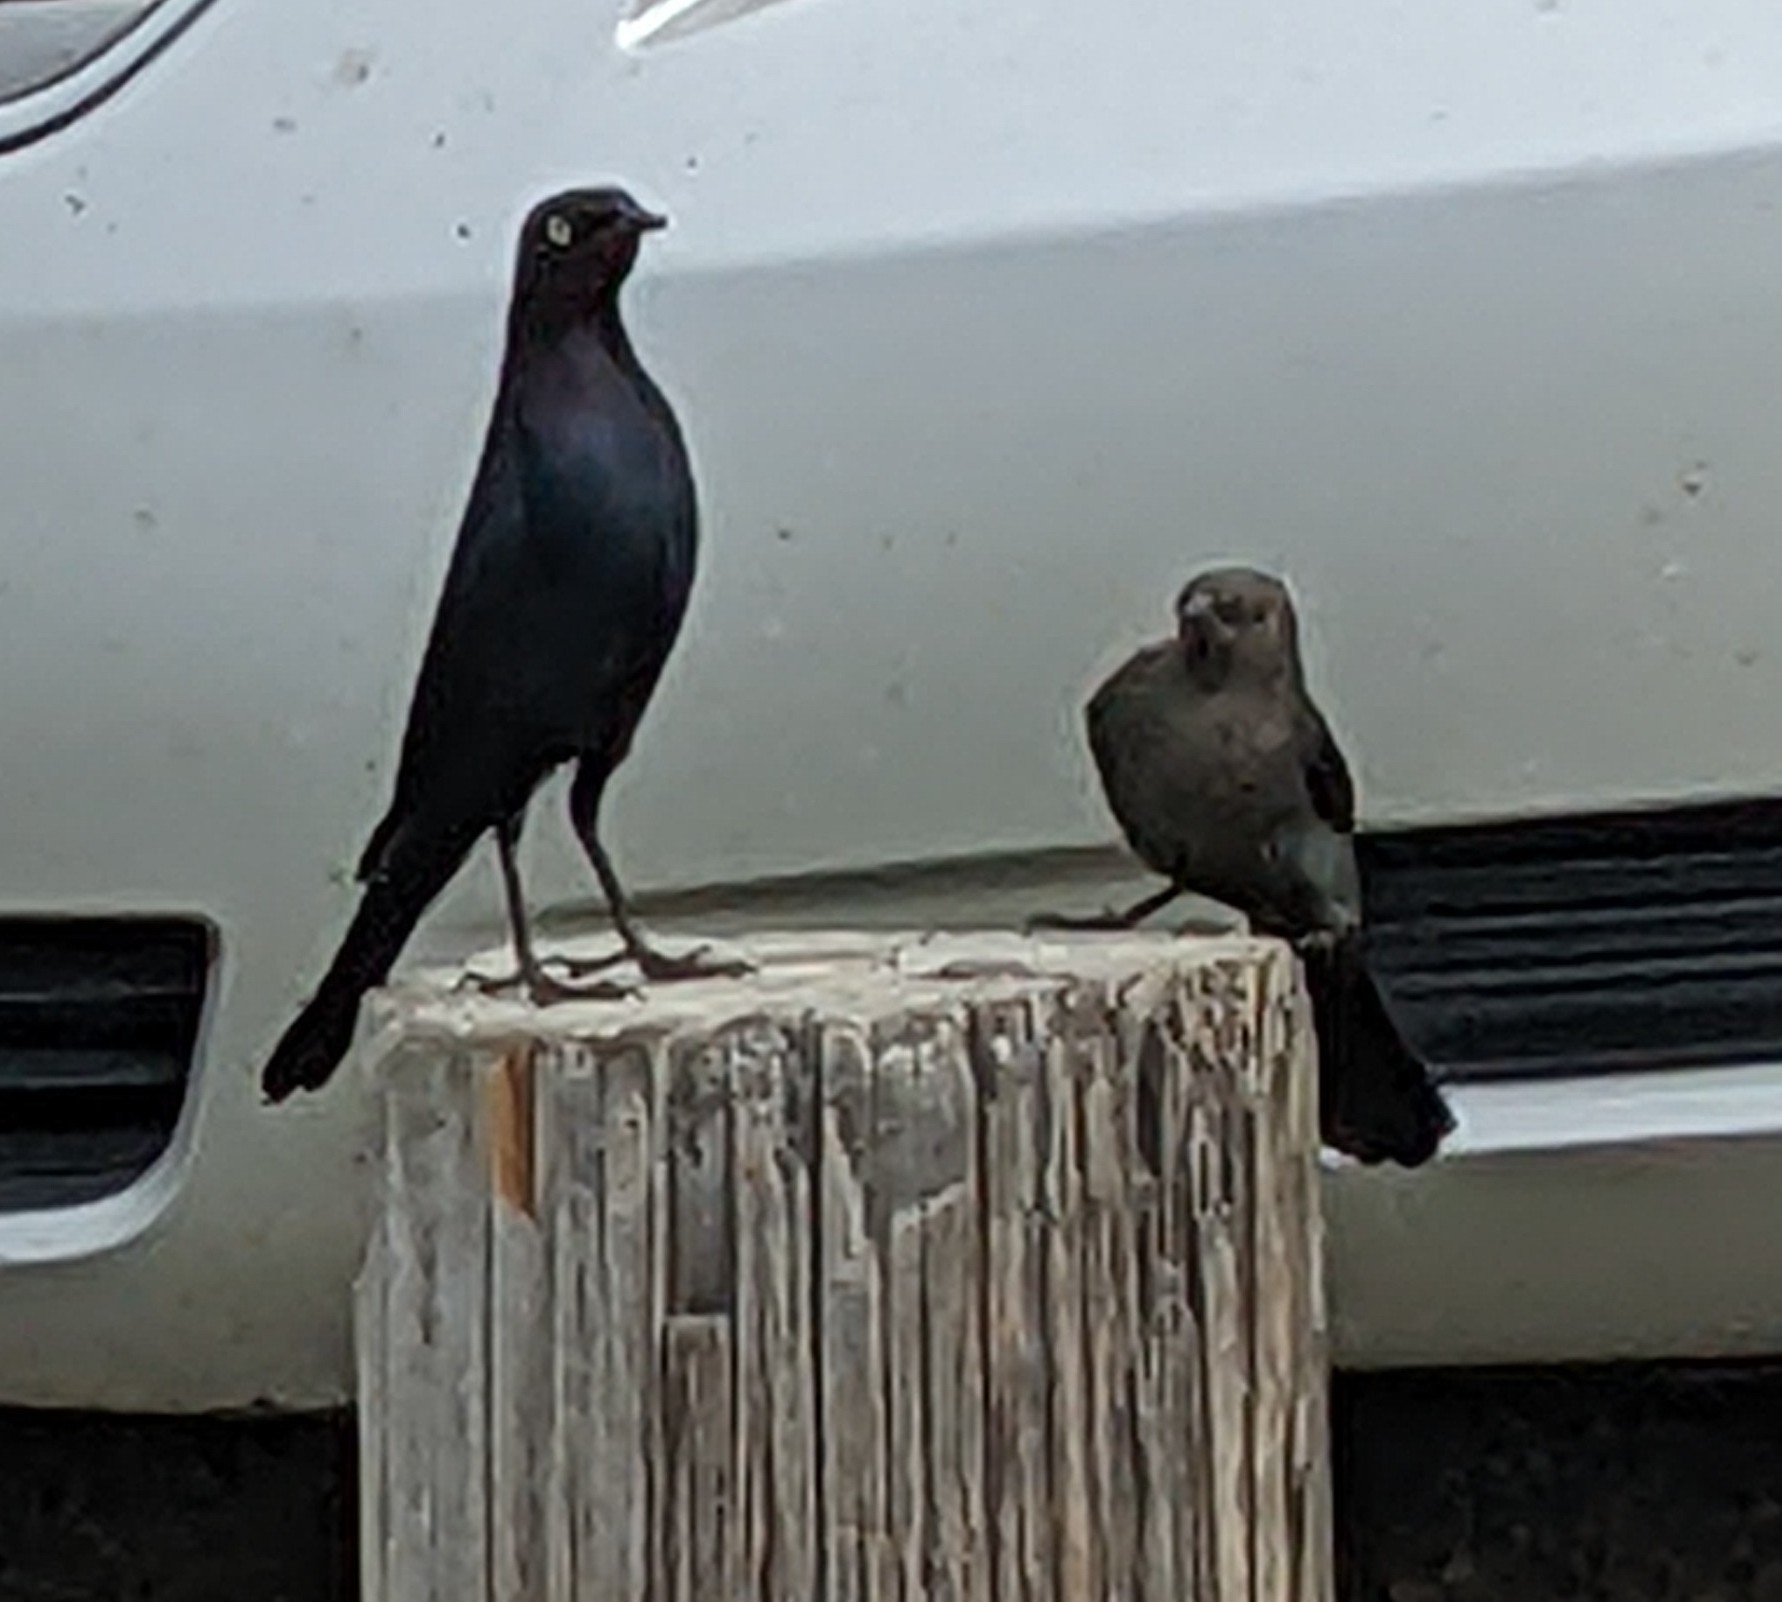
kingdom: Animalia
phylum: Chordata
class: Aves
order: Passeriformes
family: Icteridae
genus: Euphagus
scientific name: Euphagus cyanocephalus
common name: Brewer's blackbird
